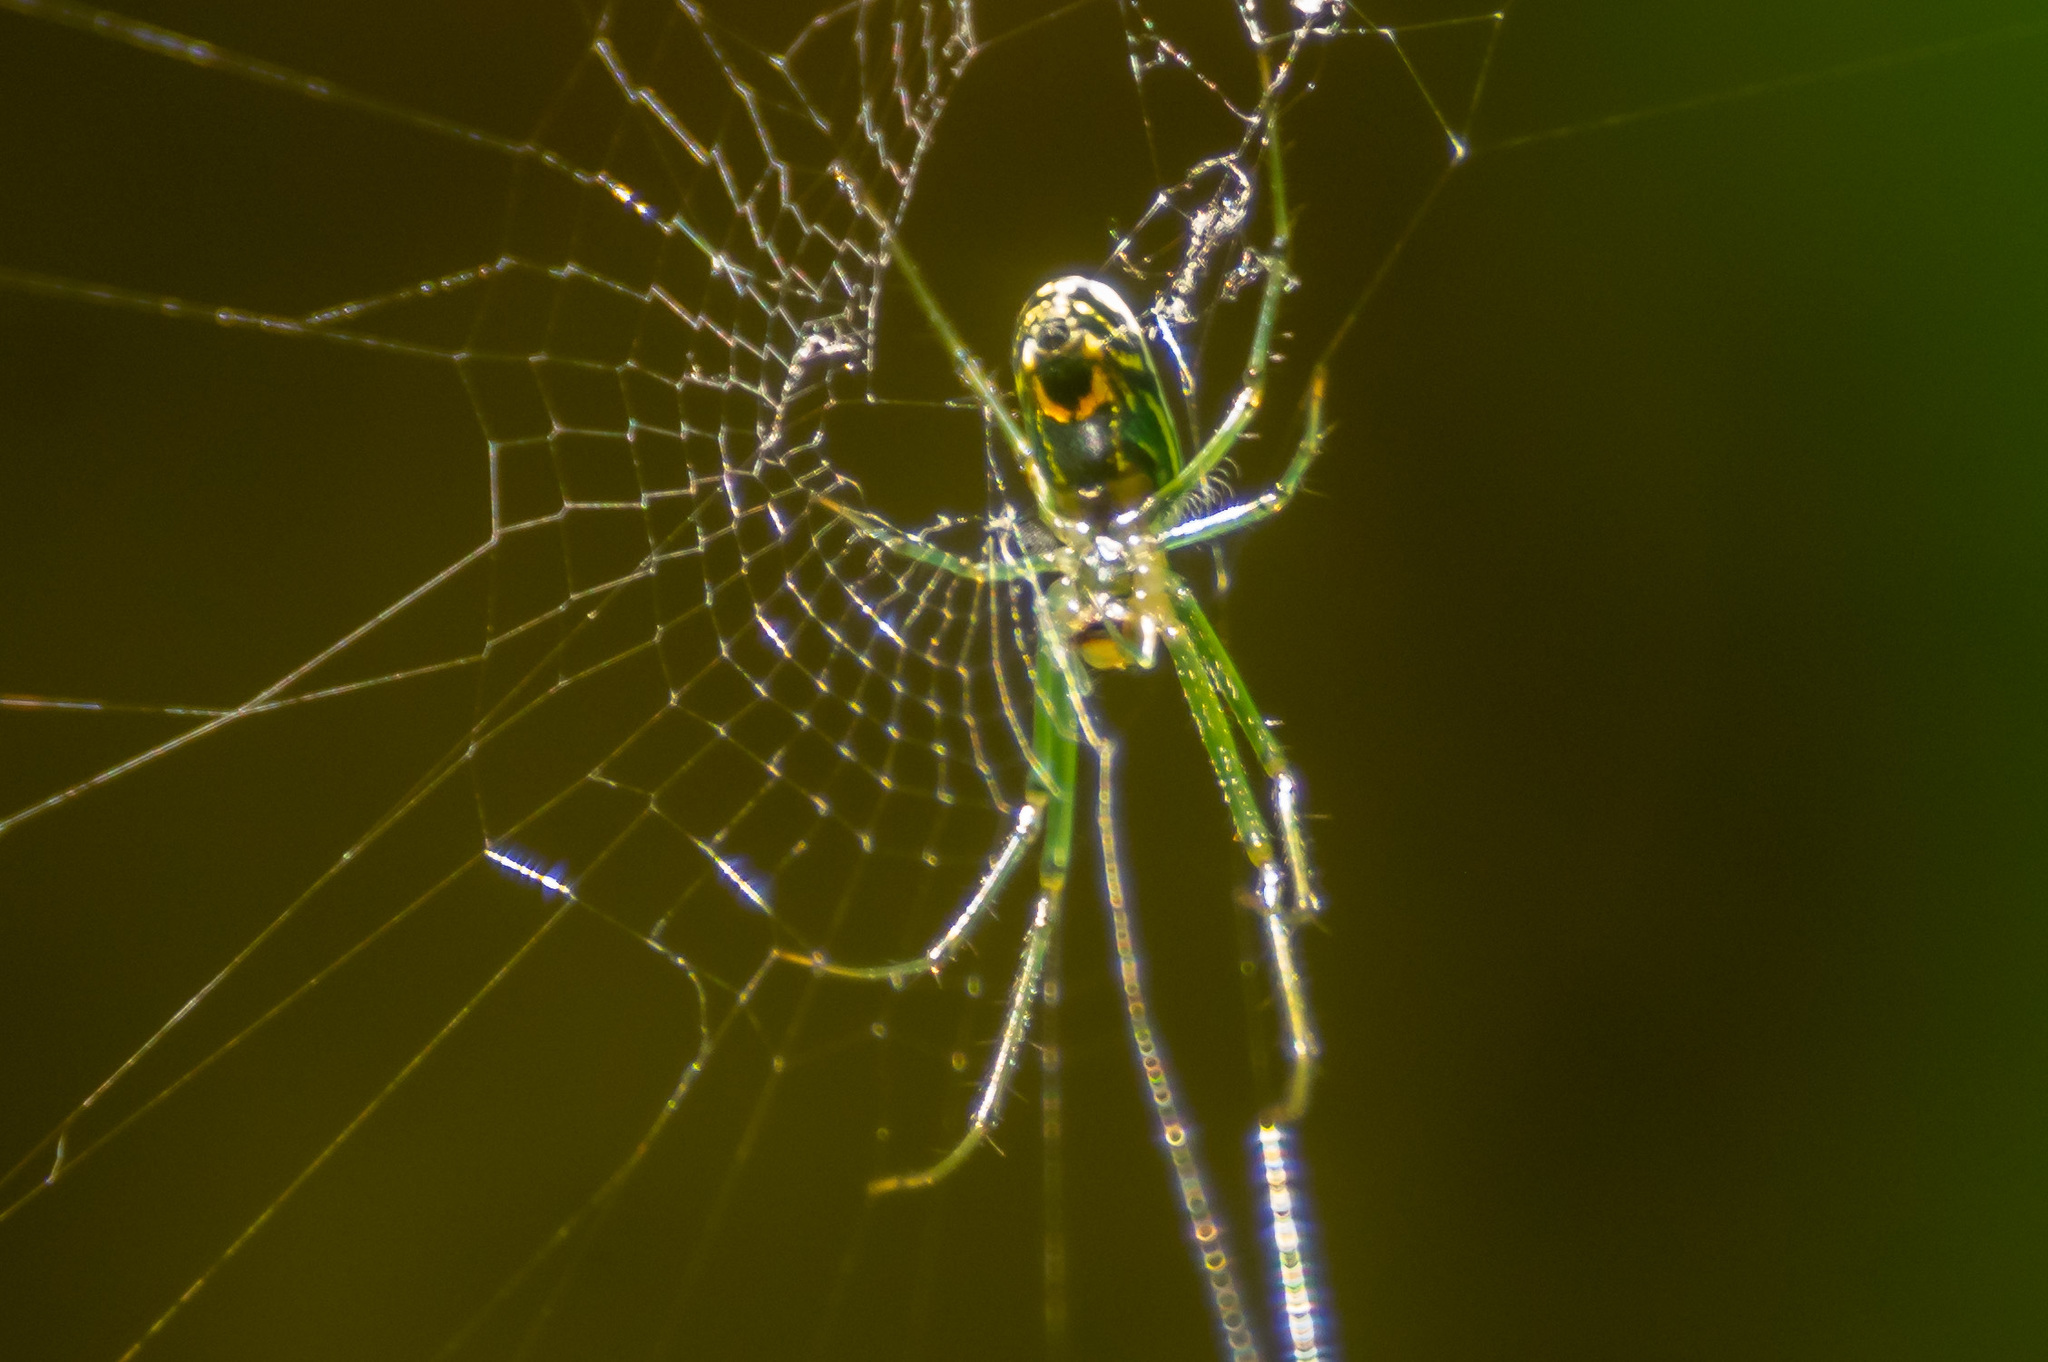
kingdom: Animalia
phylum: Arthropoda
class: Arachnida
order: Araneae
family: Tetragnathidae
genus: Leucauge
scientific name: Leucauge venusta
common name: Longjawed orb weavers
